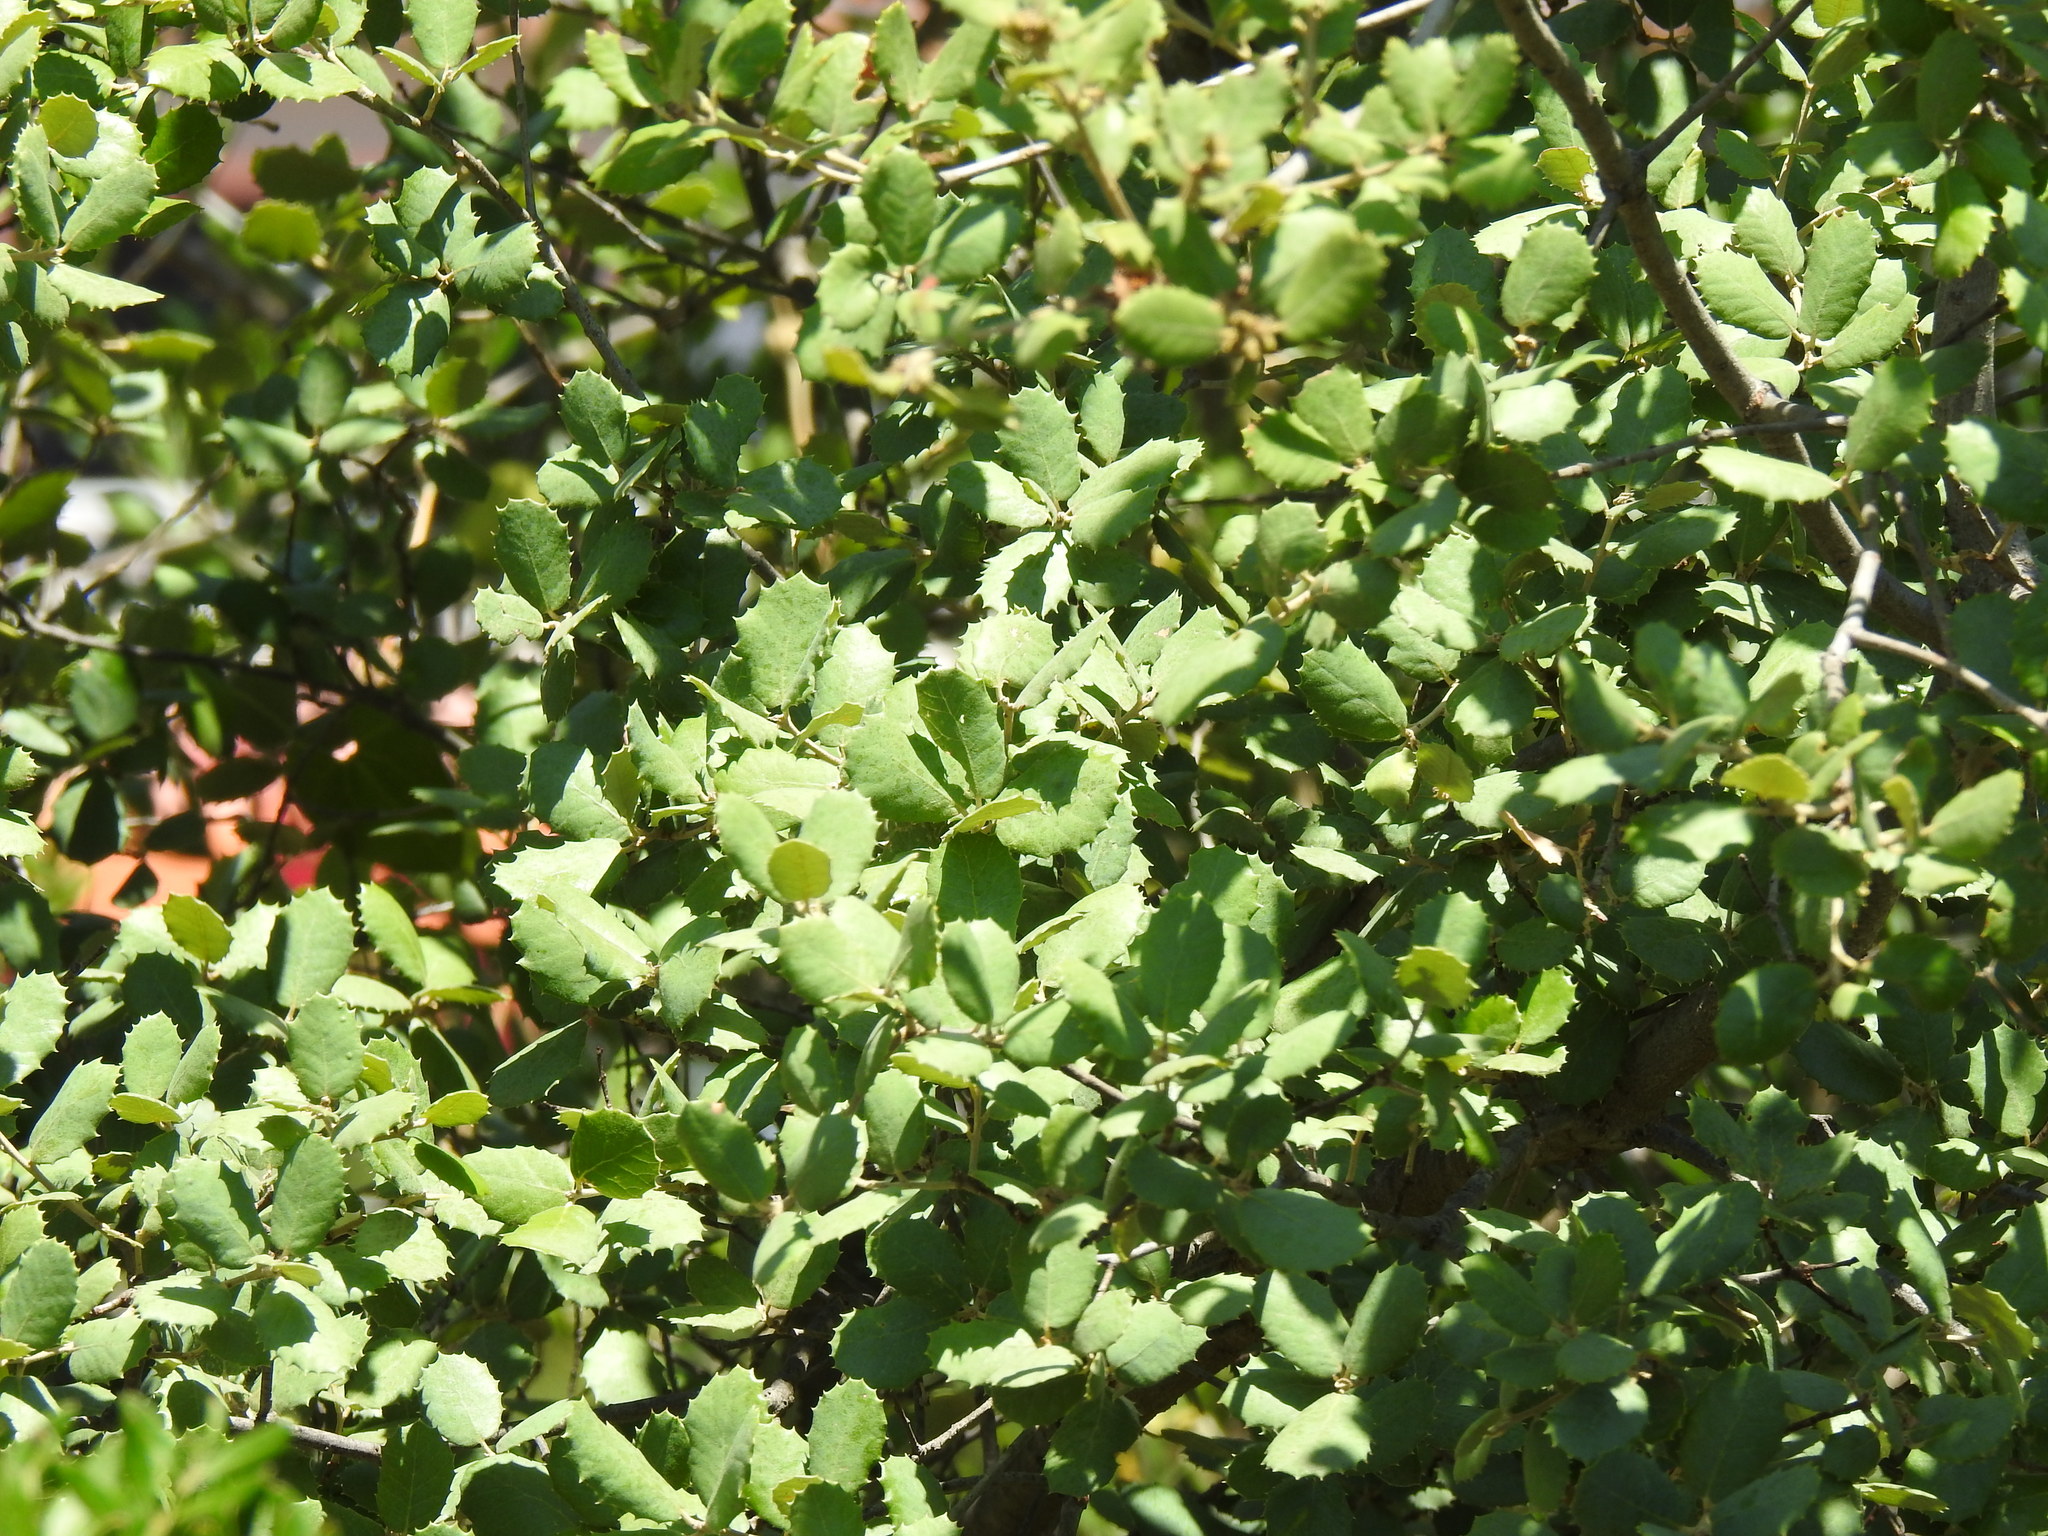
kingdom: Plantae
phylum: Tracheophyta
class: Magnoliopsida
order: Fagales
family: Fagaceae
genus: Quercus
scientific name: Quercus rotundifolia
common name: Holm oak
